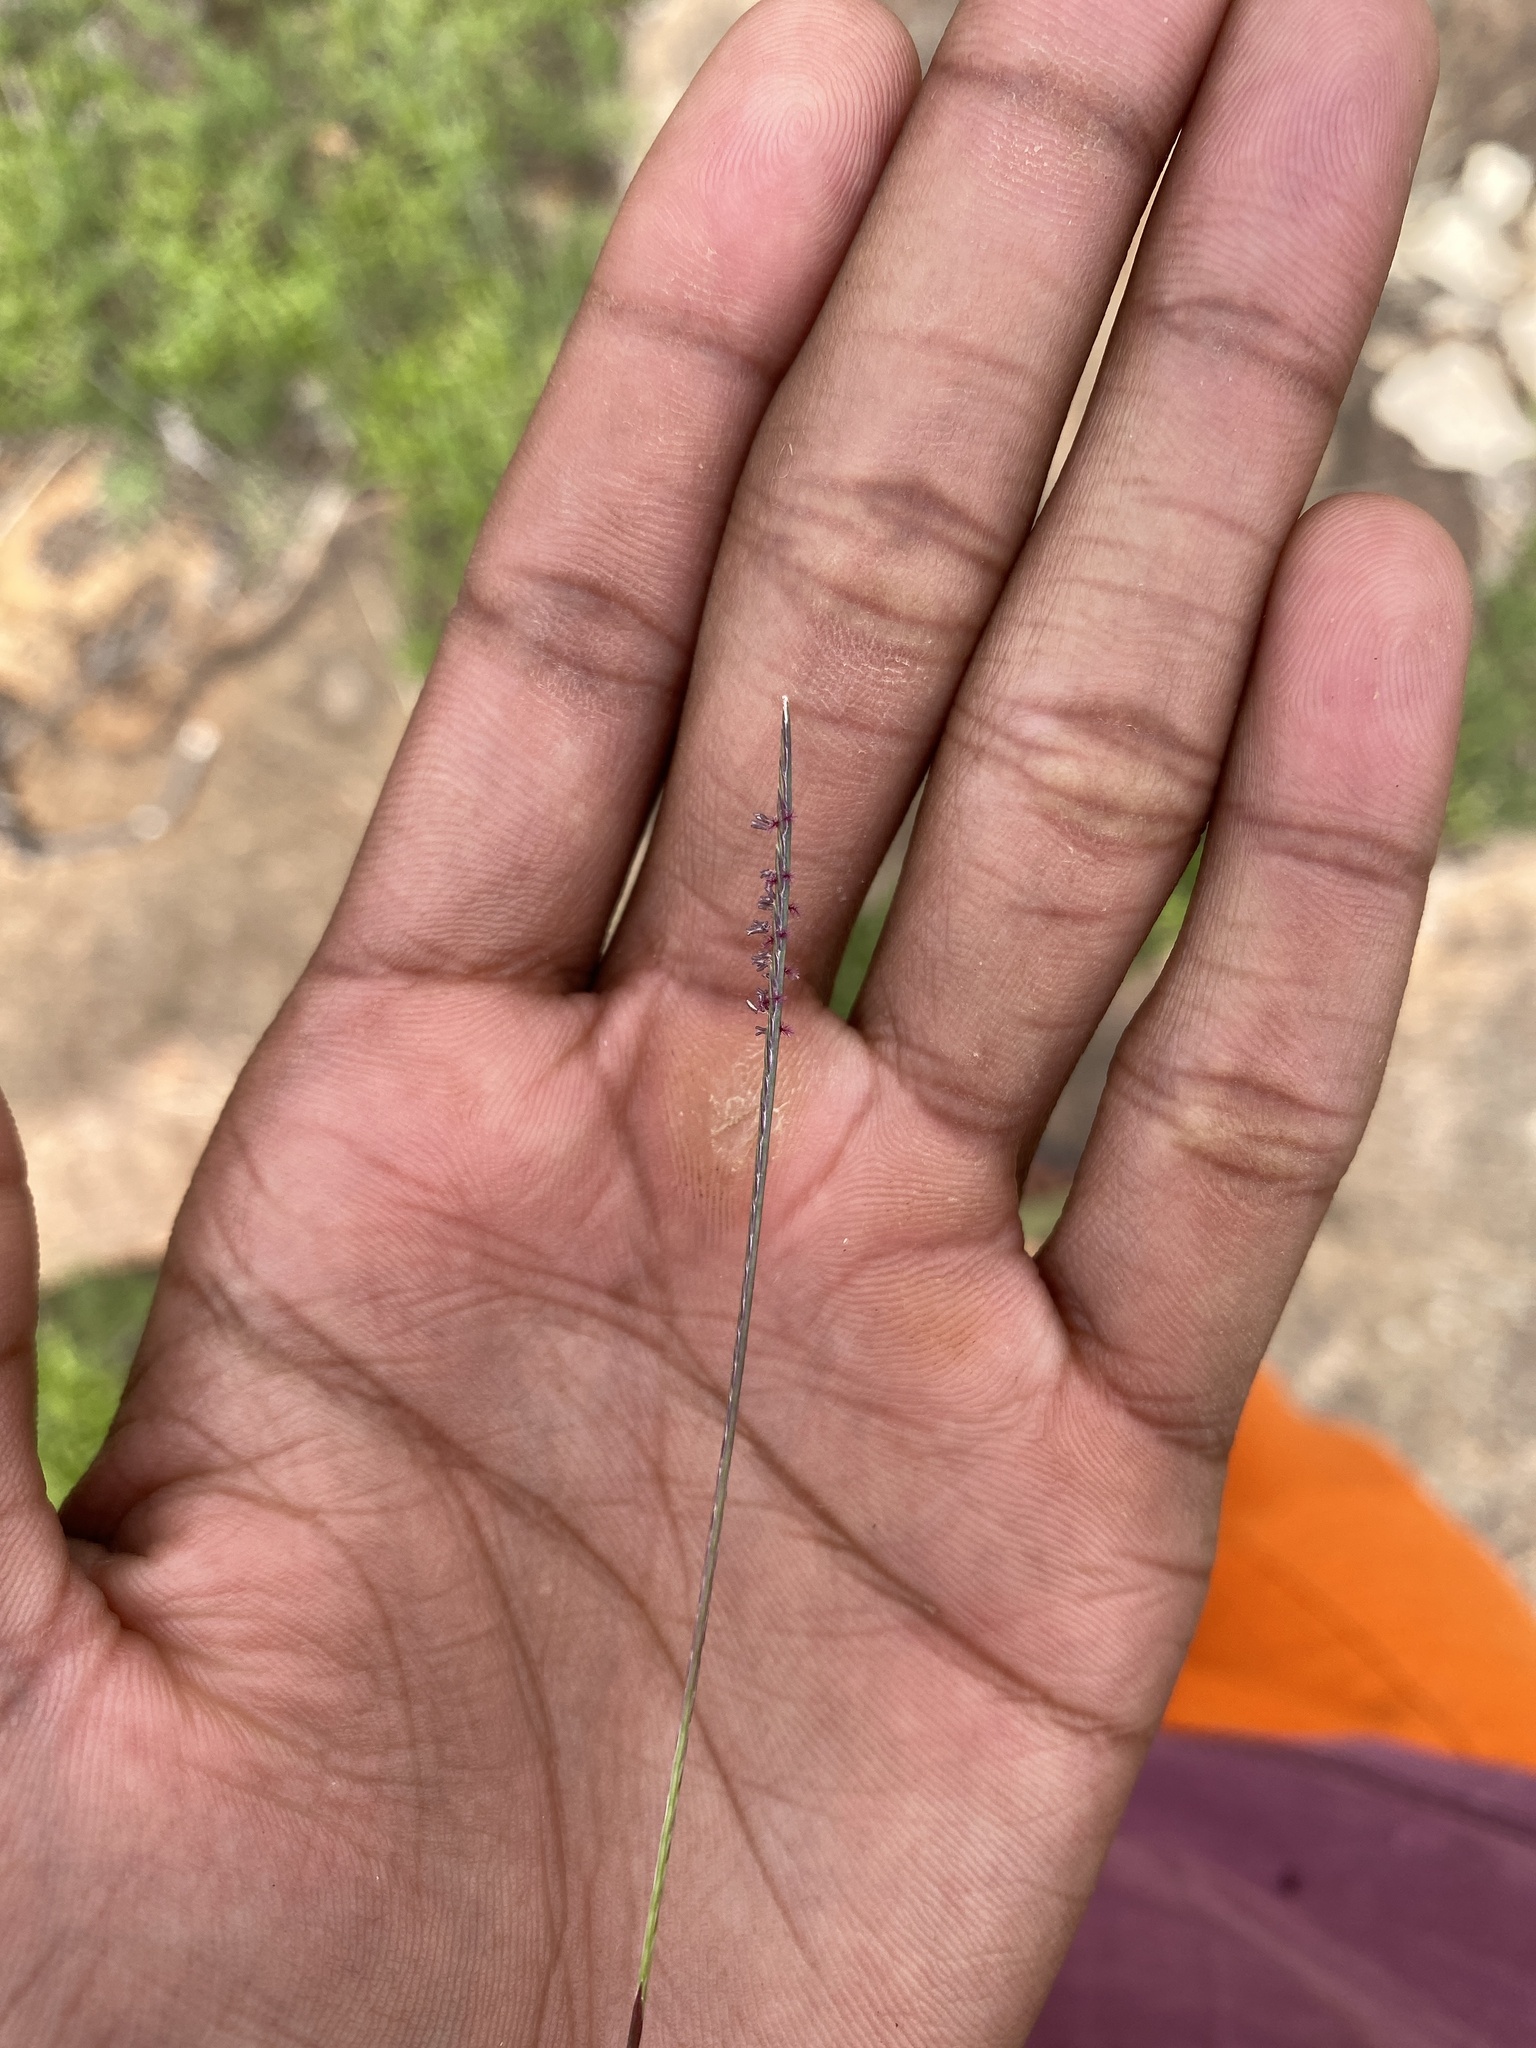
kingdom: Plantae
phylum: Tracheophyta
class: Liliopsida
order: Poales
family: Poaceae
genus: Microchloa
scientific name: Microchloa caffra
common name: Pincushion grass
